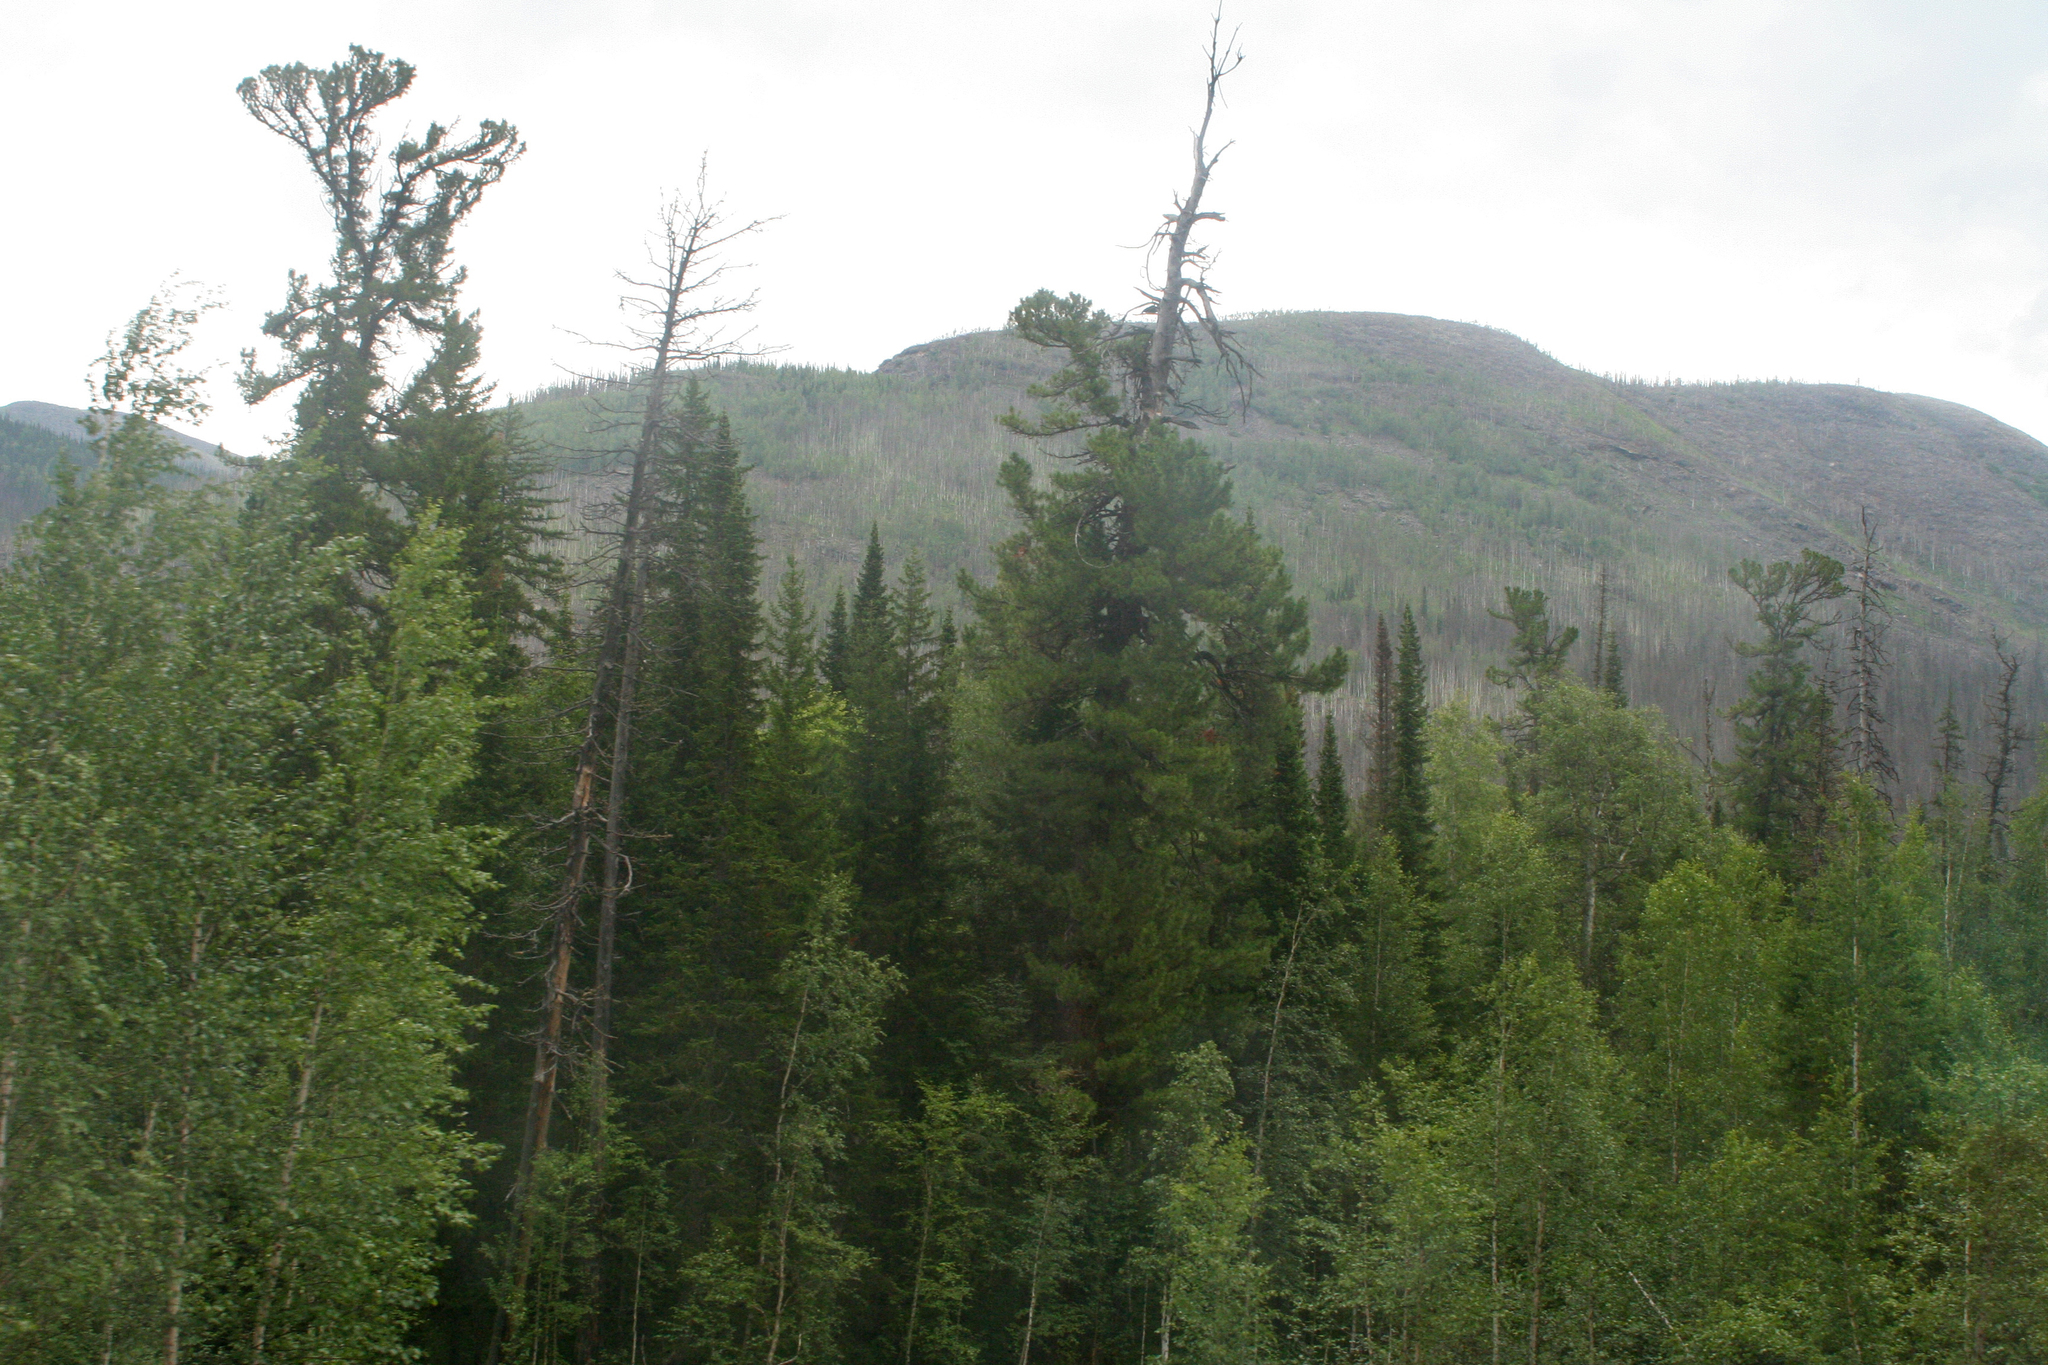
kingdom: Plantae
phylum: Tracheophyta
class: Pinopsida
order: Pinales
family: Pinaceae
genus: Pinus
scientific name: Pinus sibirica
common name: Siberian pine
